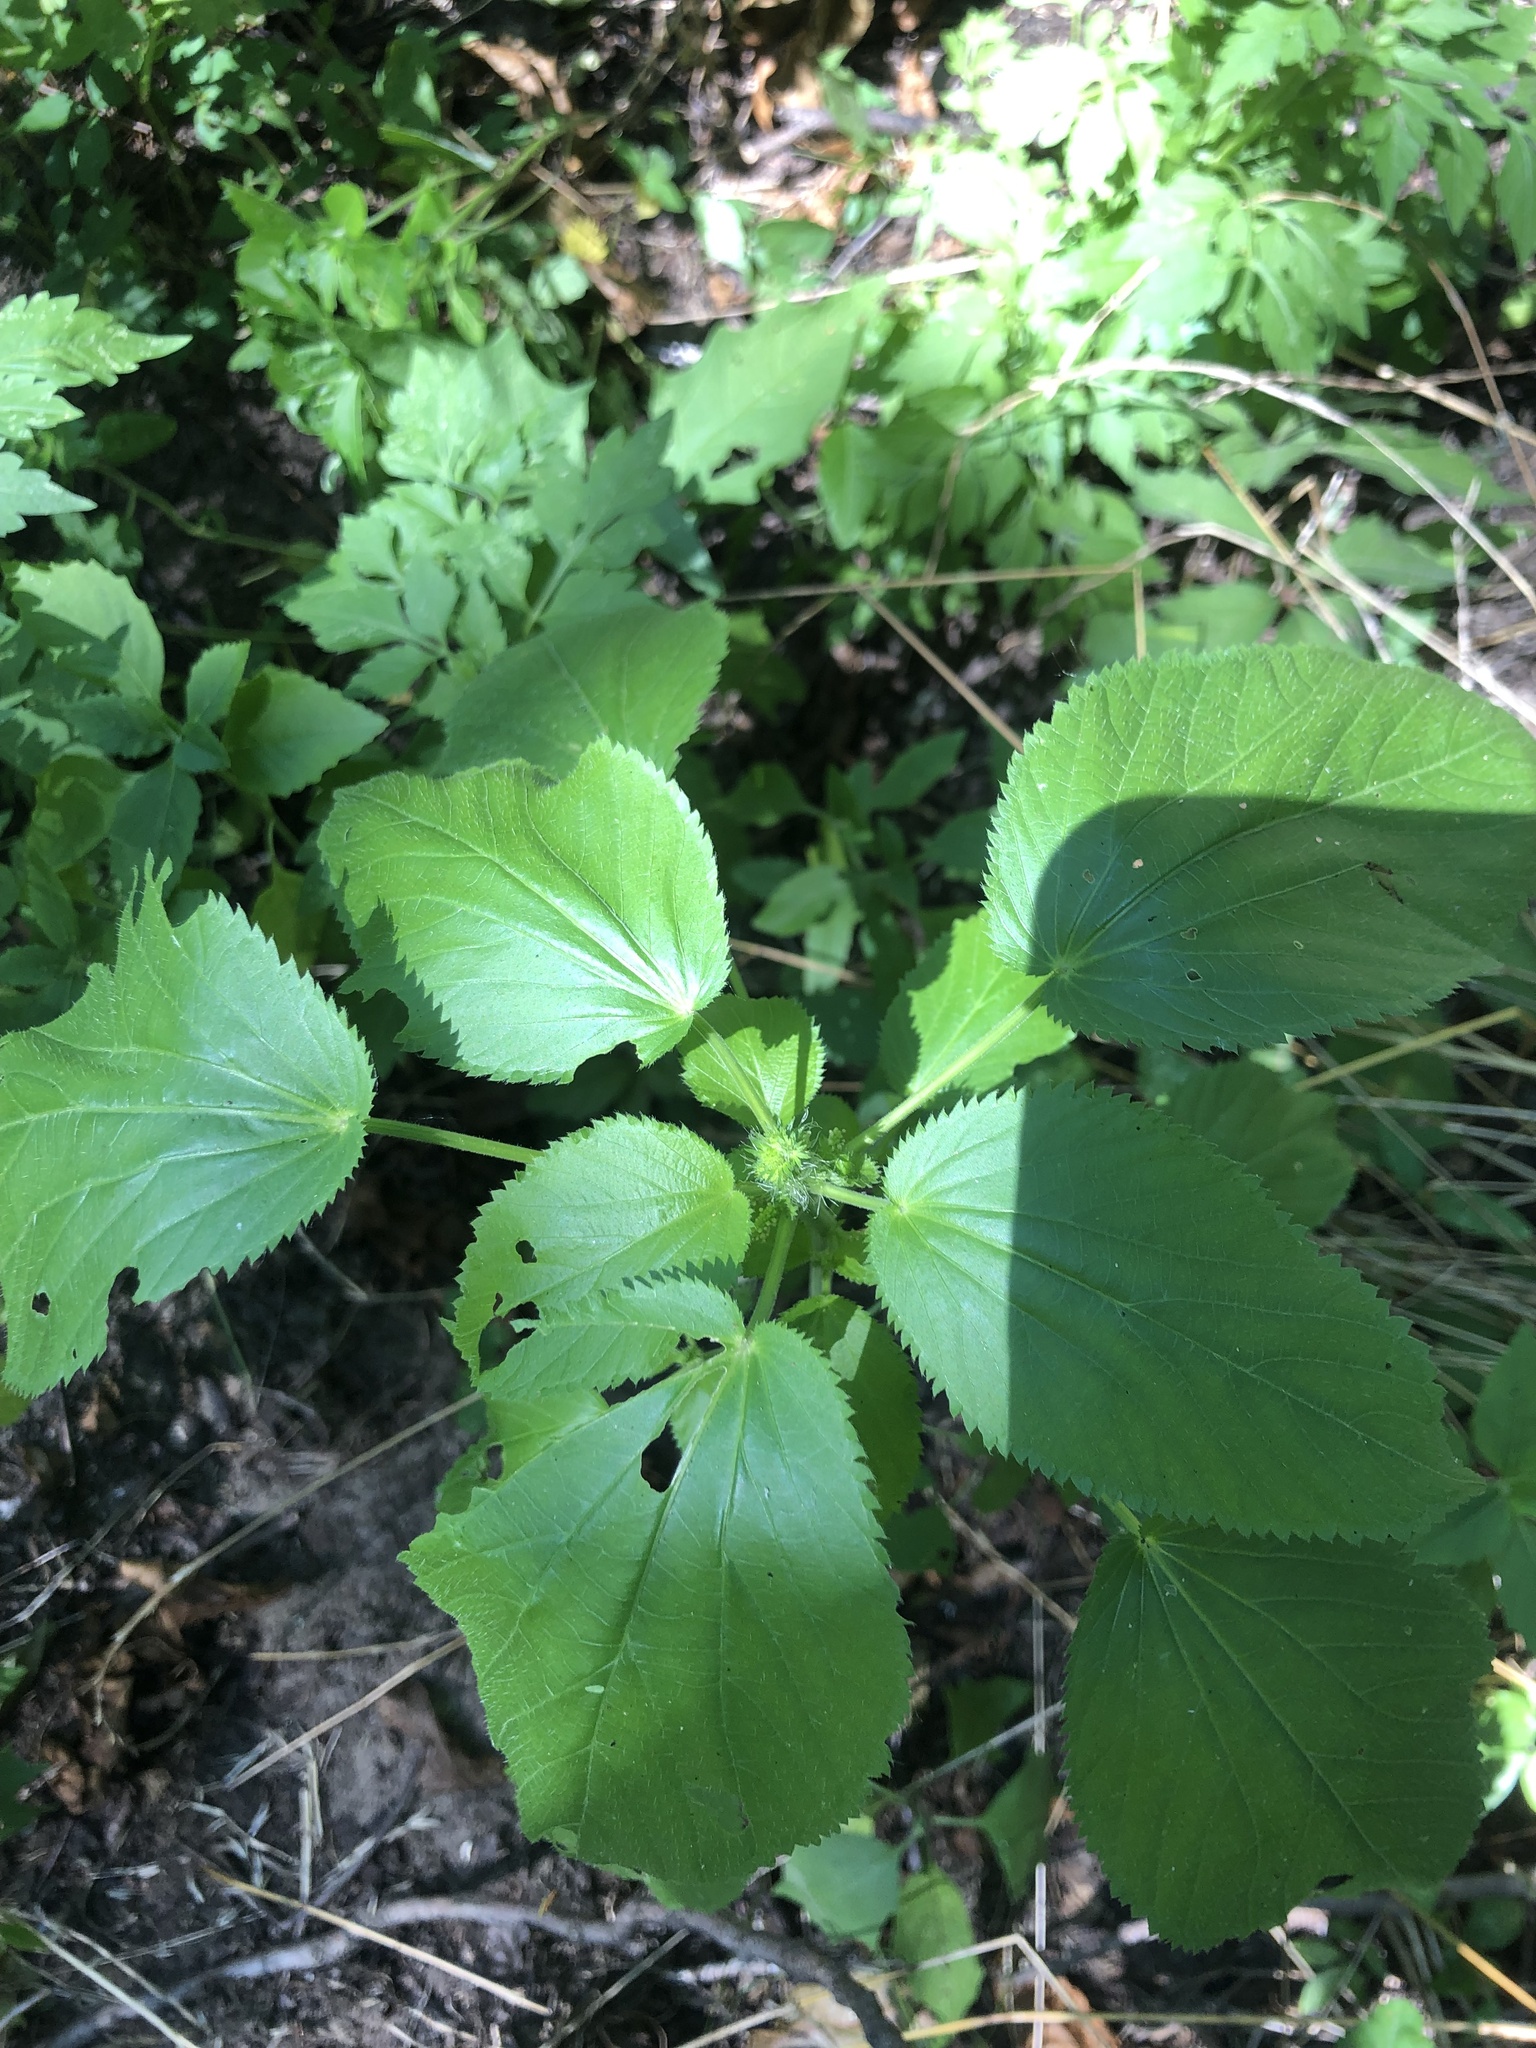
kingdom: Plantae
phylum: Tracheophyta
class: Magnoliopsida
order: Malpighiales
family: Euphorbiaceae
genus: Acalypha
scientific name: Acalypha ostryifolia
